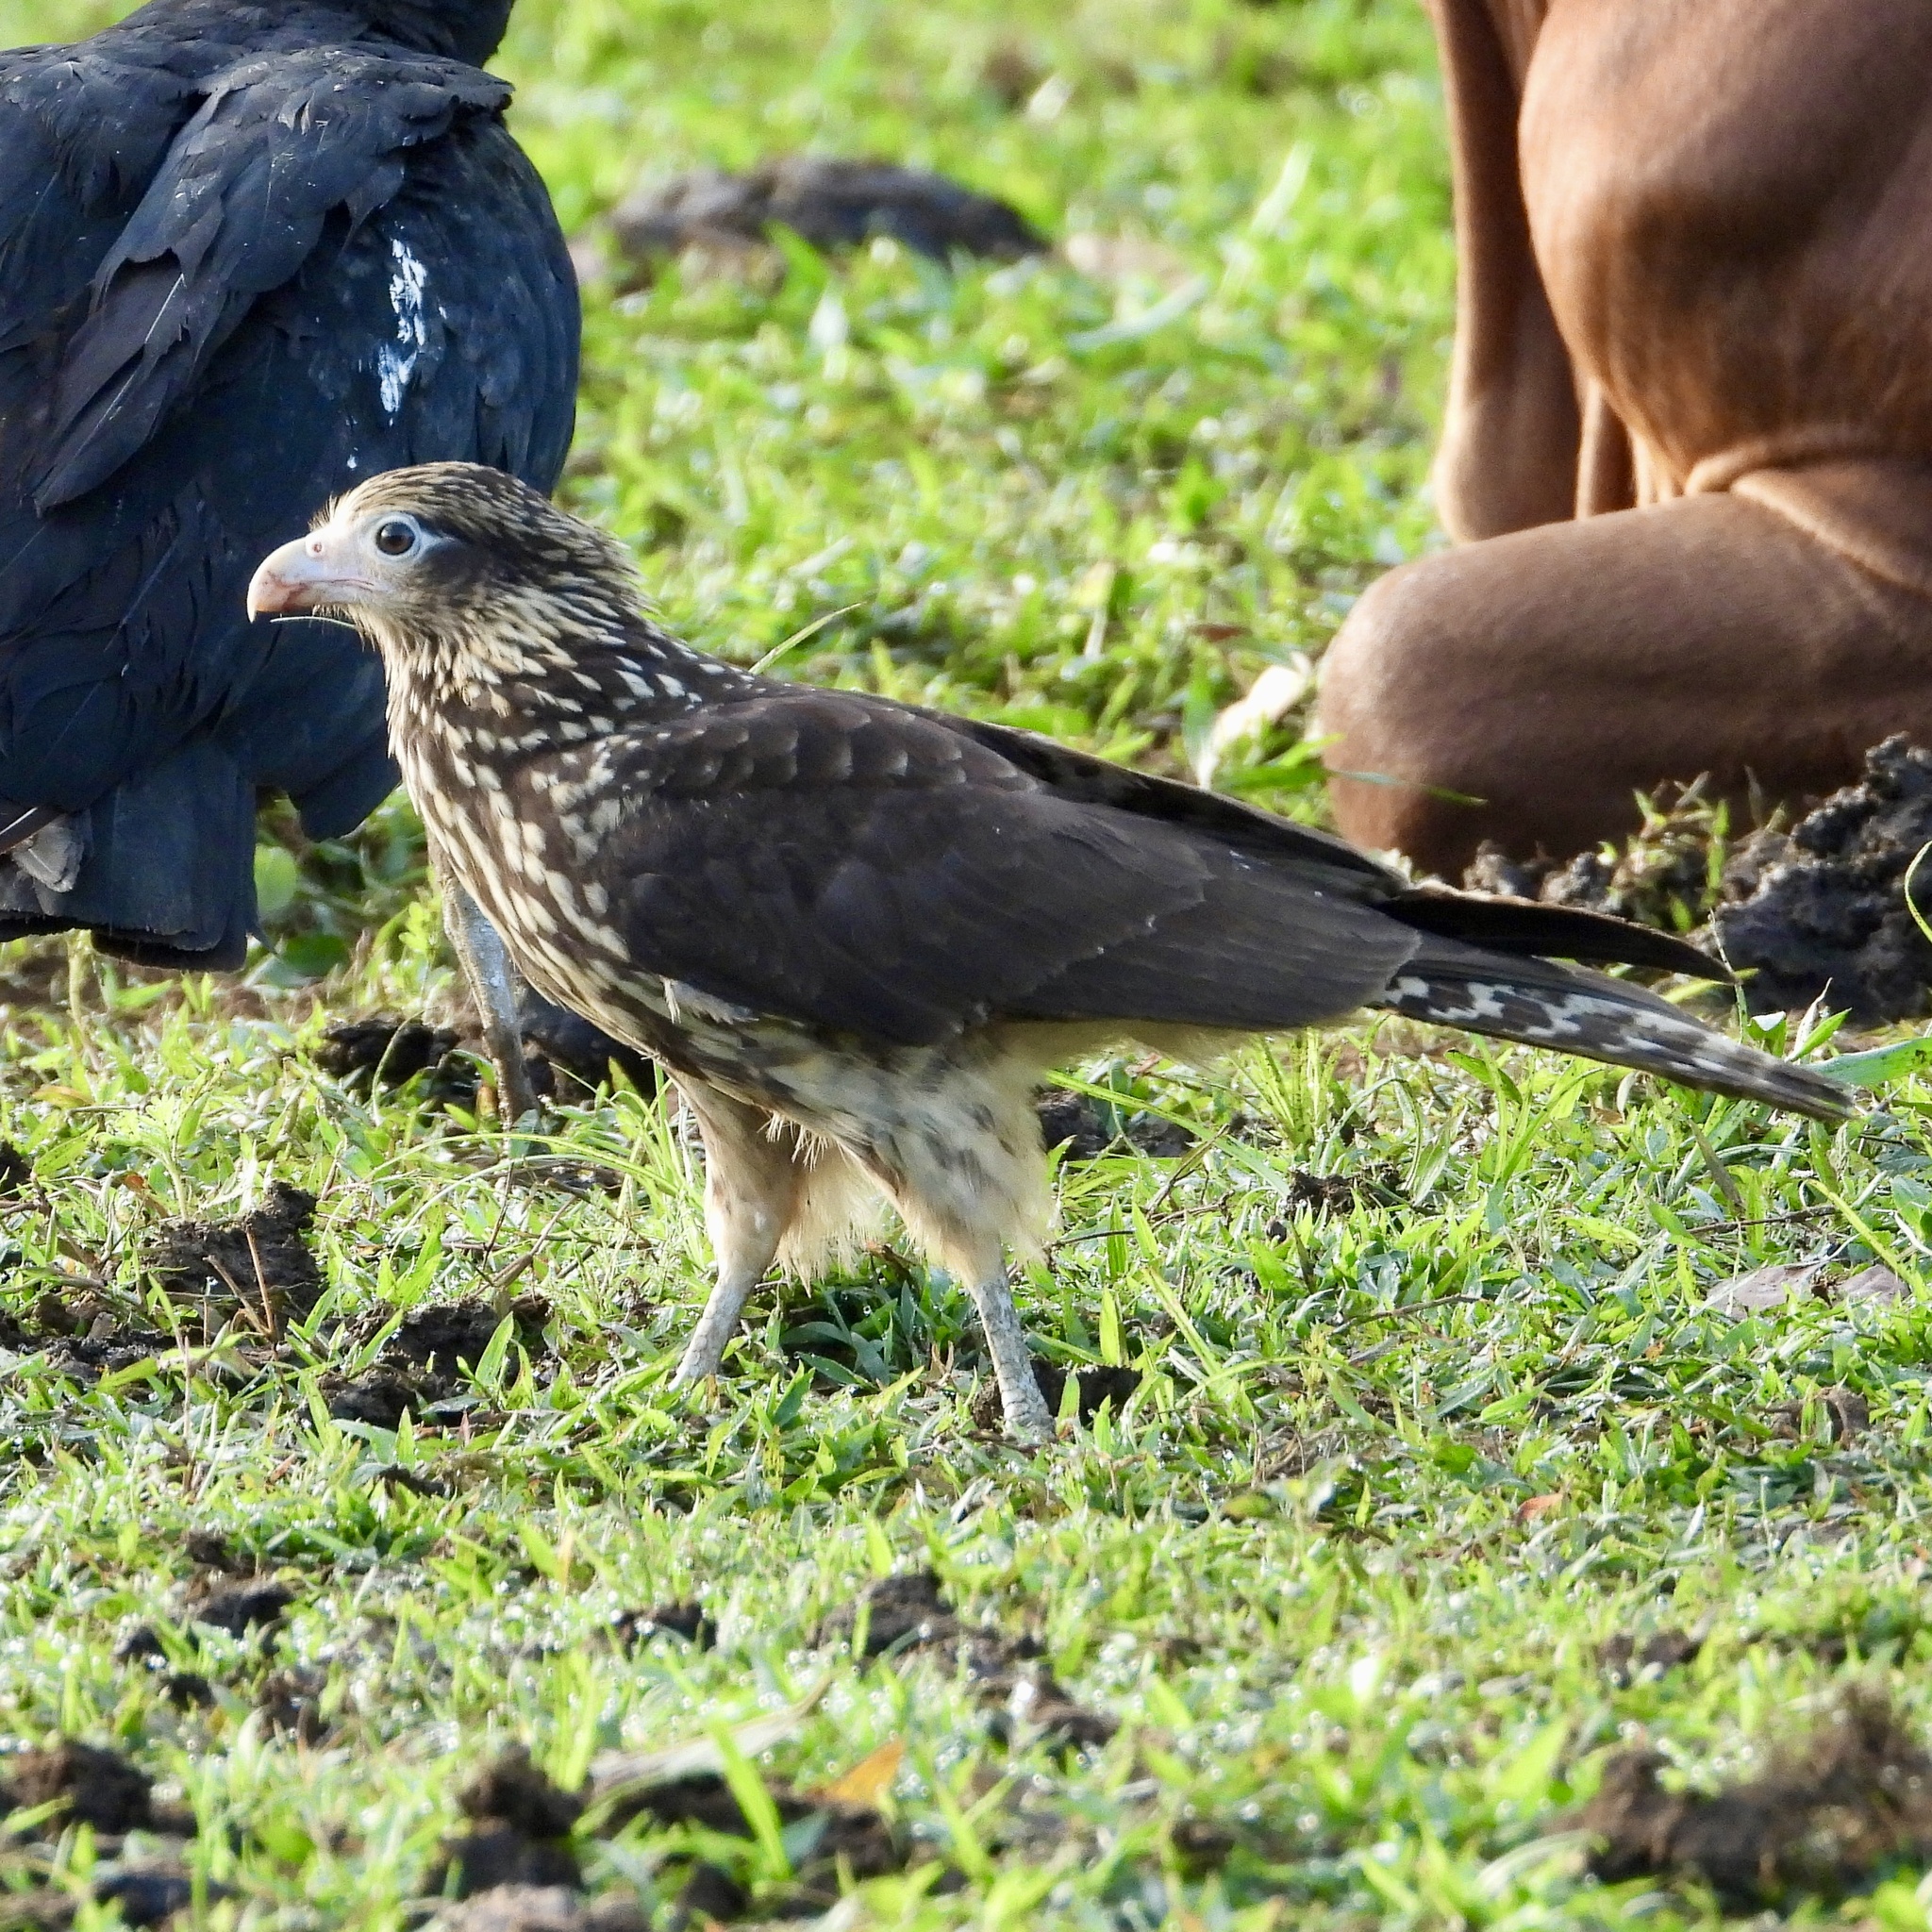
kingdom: Animalia
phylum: Chordata
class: Aves
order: Falconiformes
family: Falconidae
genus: Daptrius
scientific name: Daptrius
